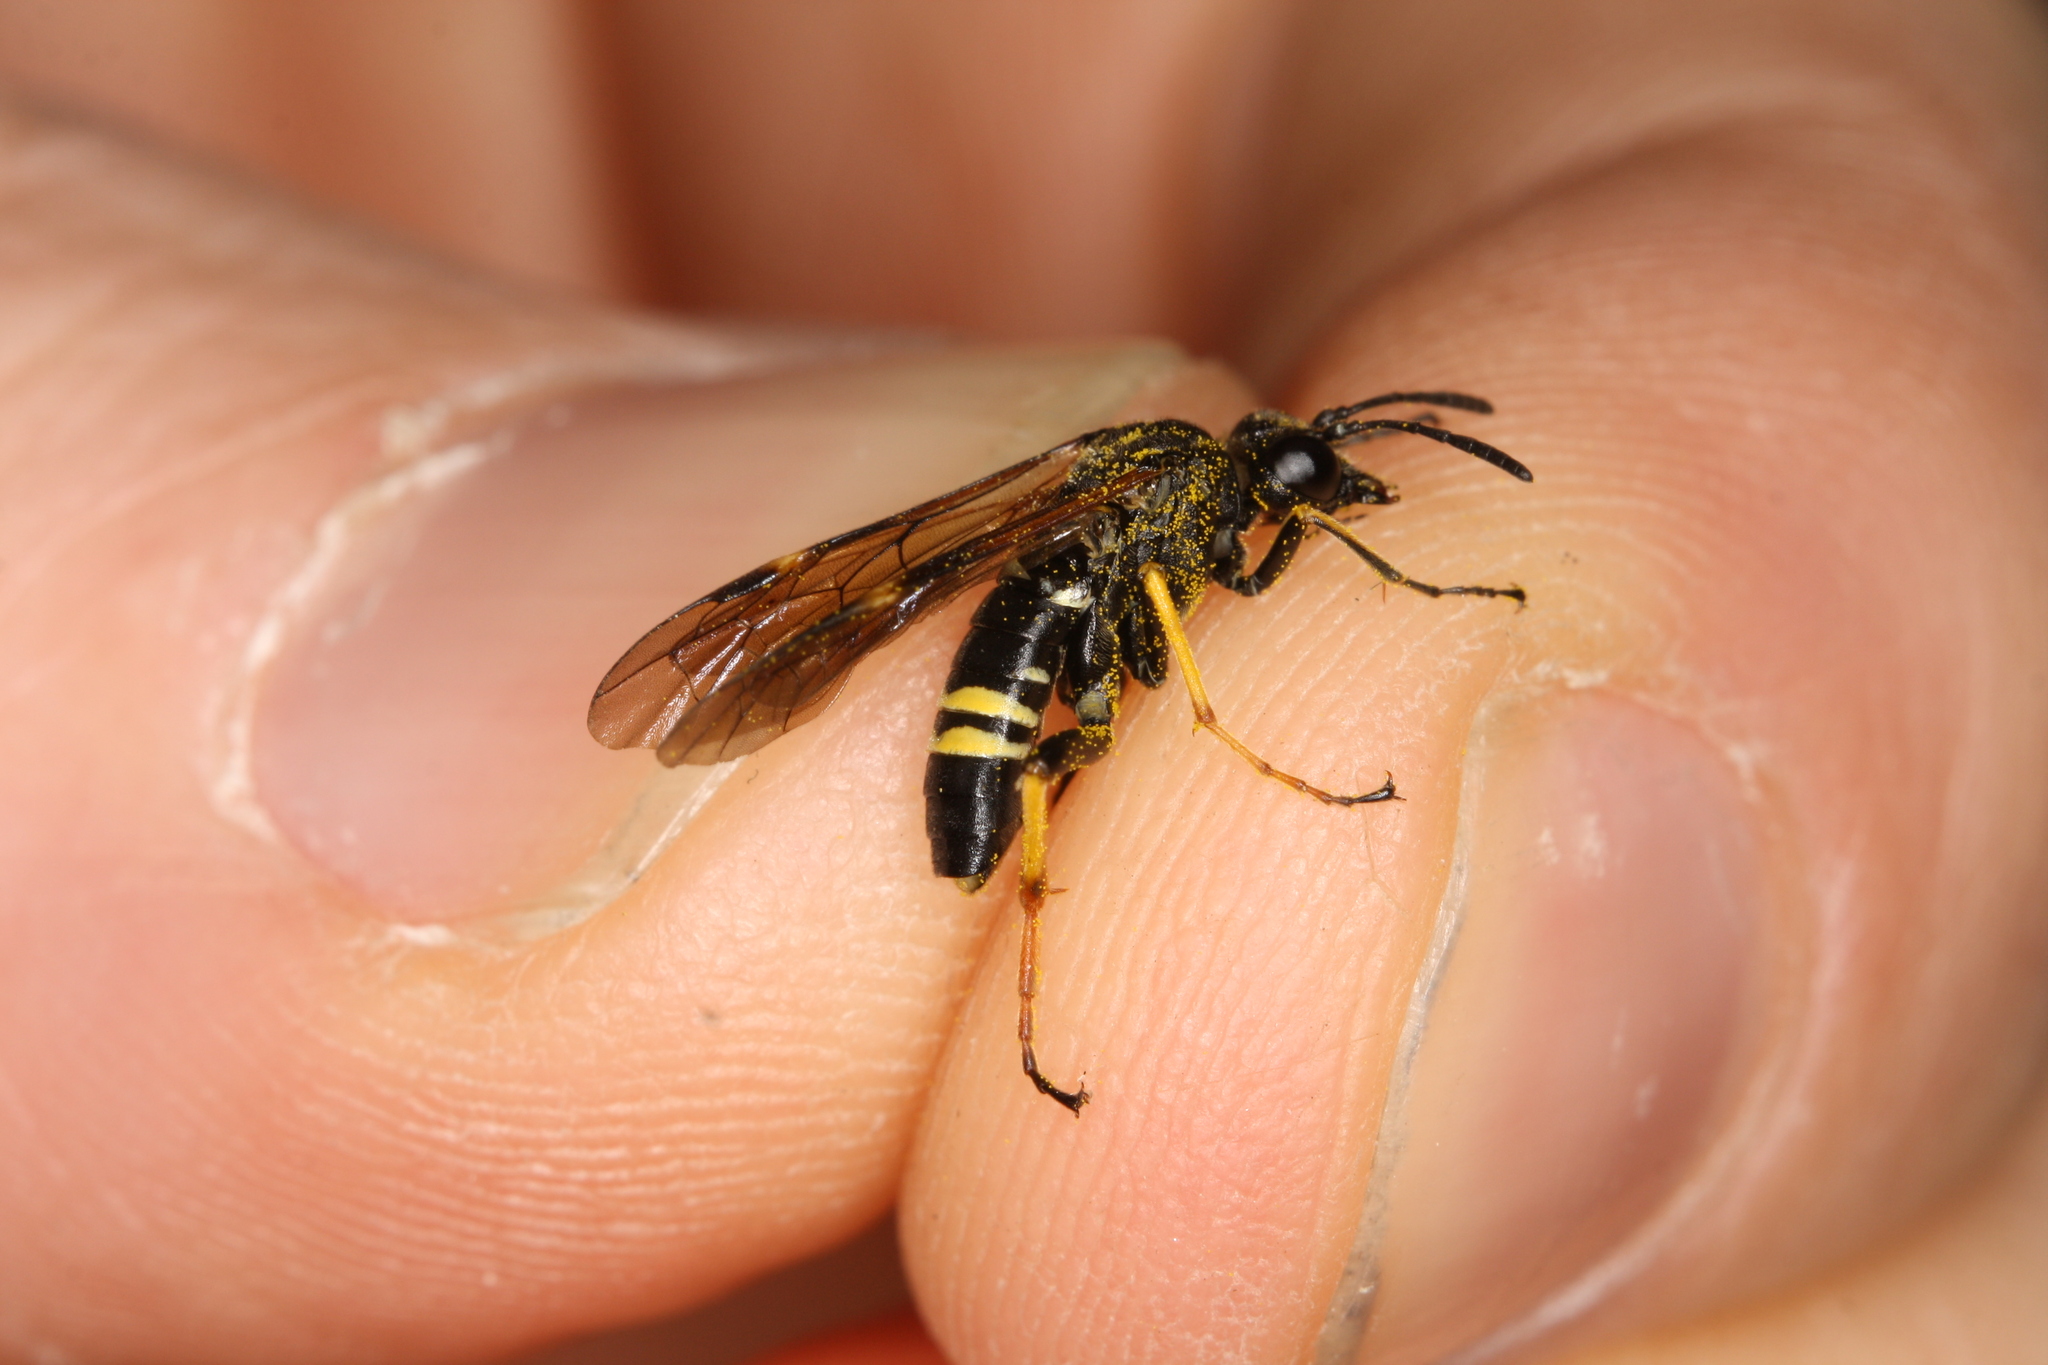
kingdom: Animalia
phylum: Arthropoda
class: Insecta
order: Hymenoptera
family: Tenthredinidae
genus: Tenthredo
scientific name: Tenthredo koehleri
